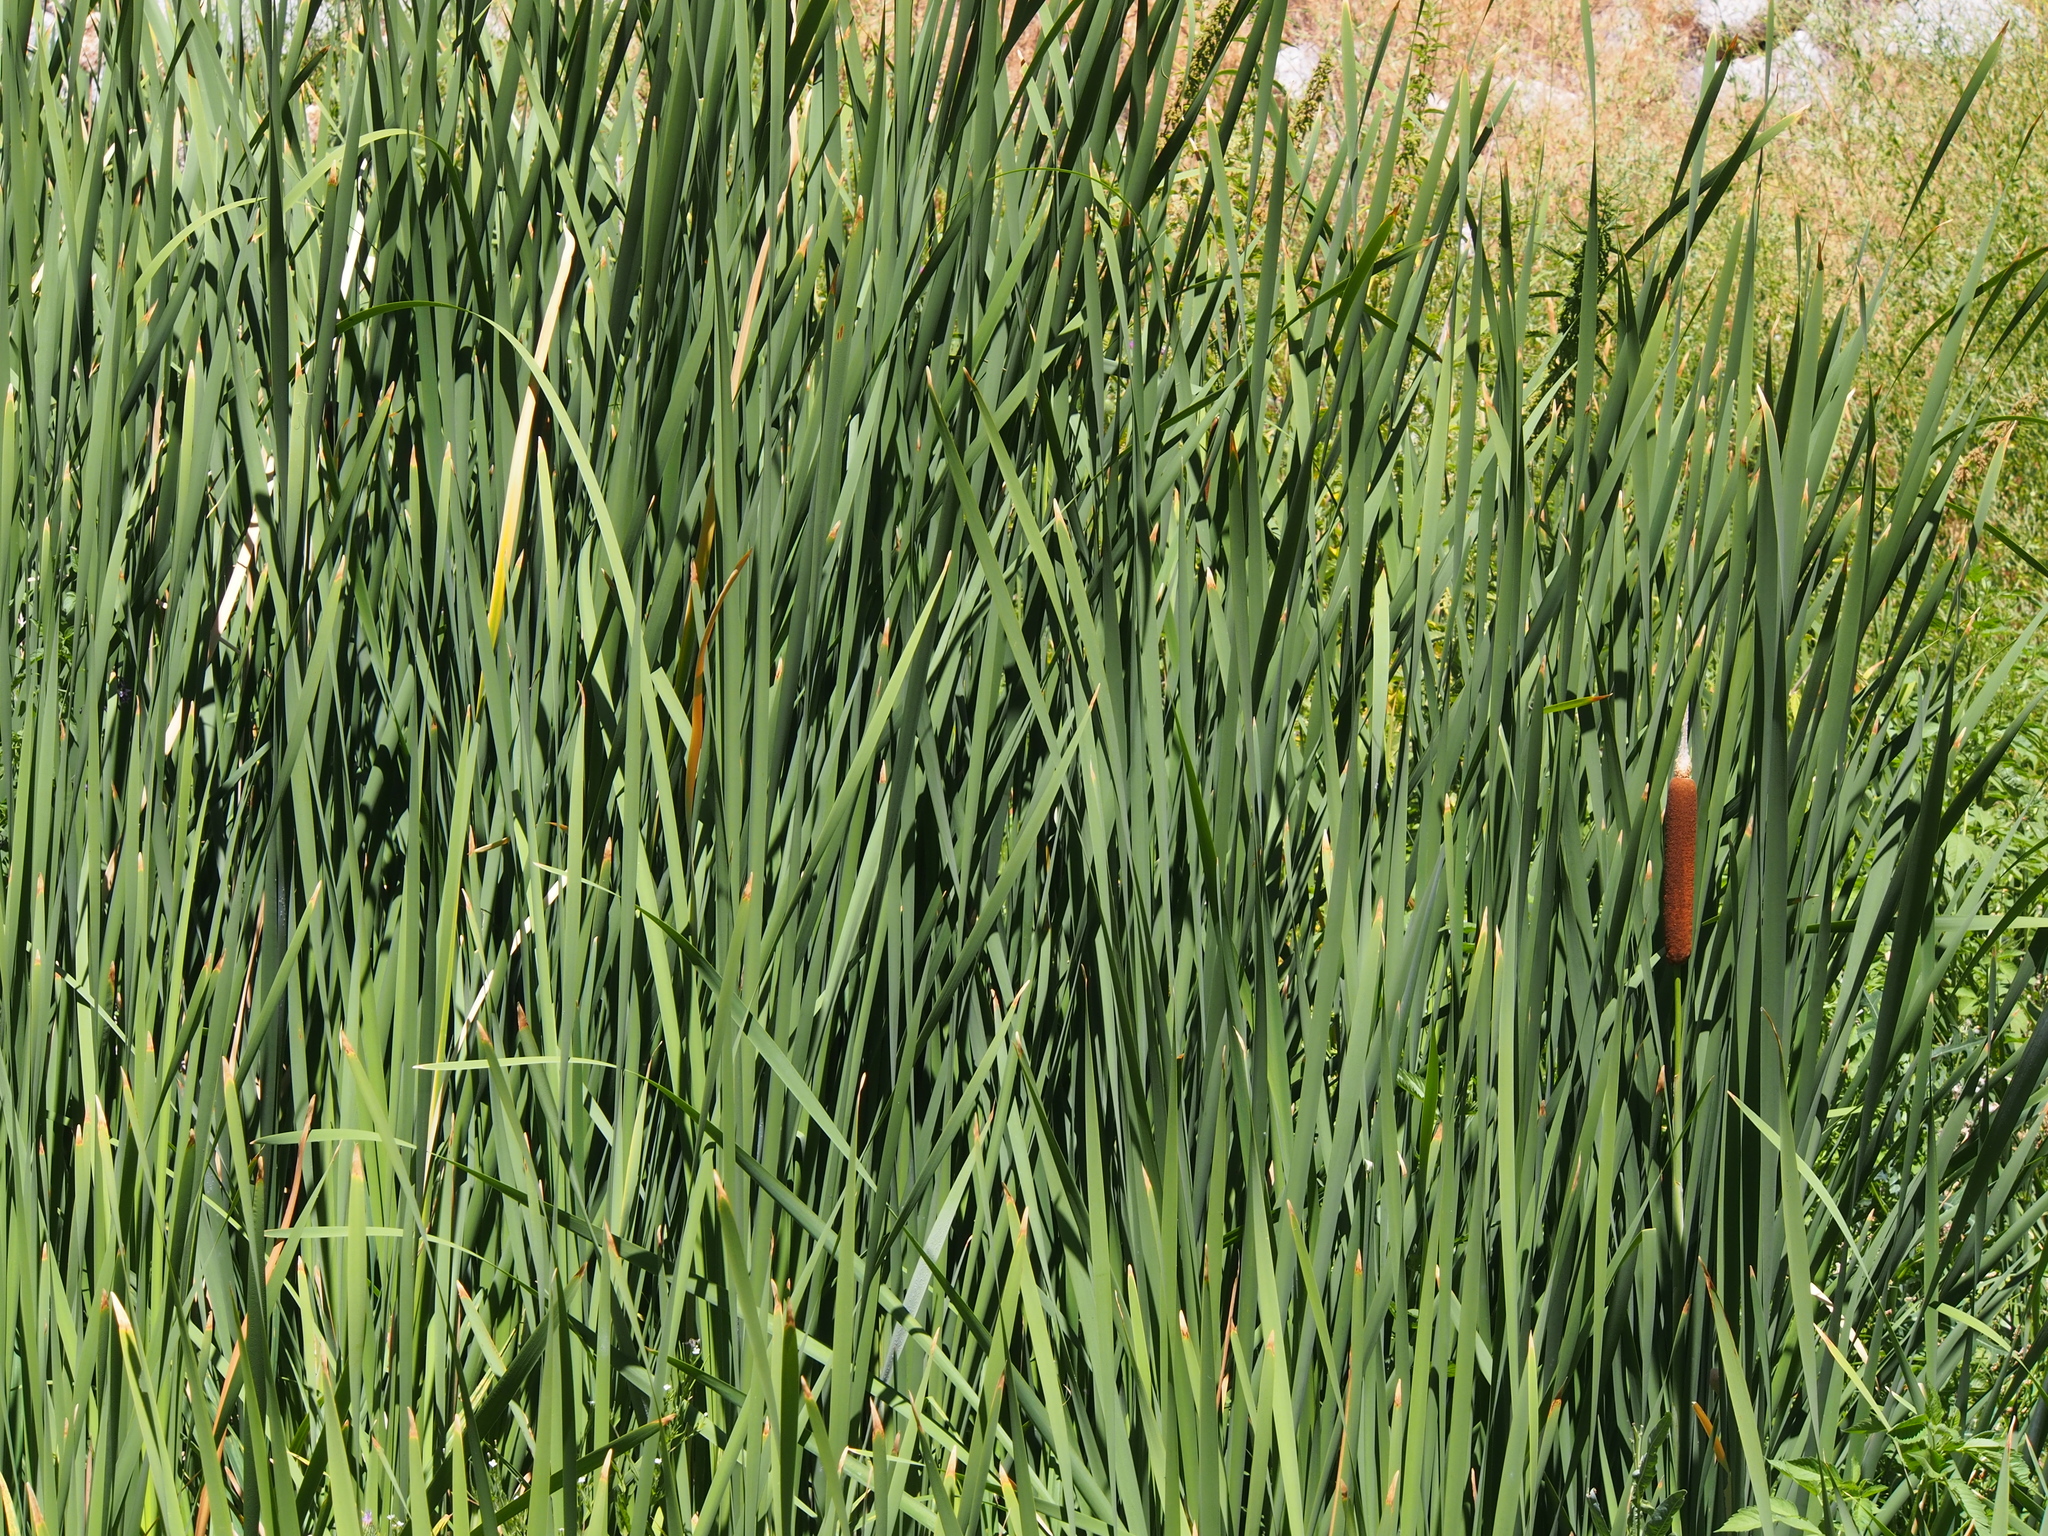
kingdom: Plantae
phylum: Tracheophyta
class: Liliopsida
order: Poales
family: Typhaceae
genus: Typha
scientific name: Typha latifolia
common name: Broadleaf cattail
